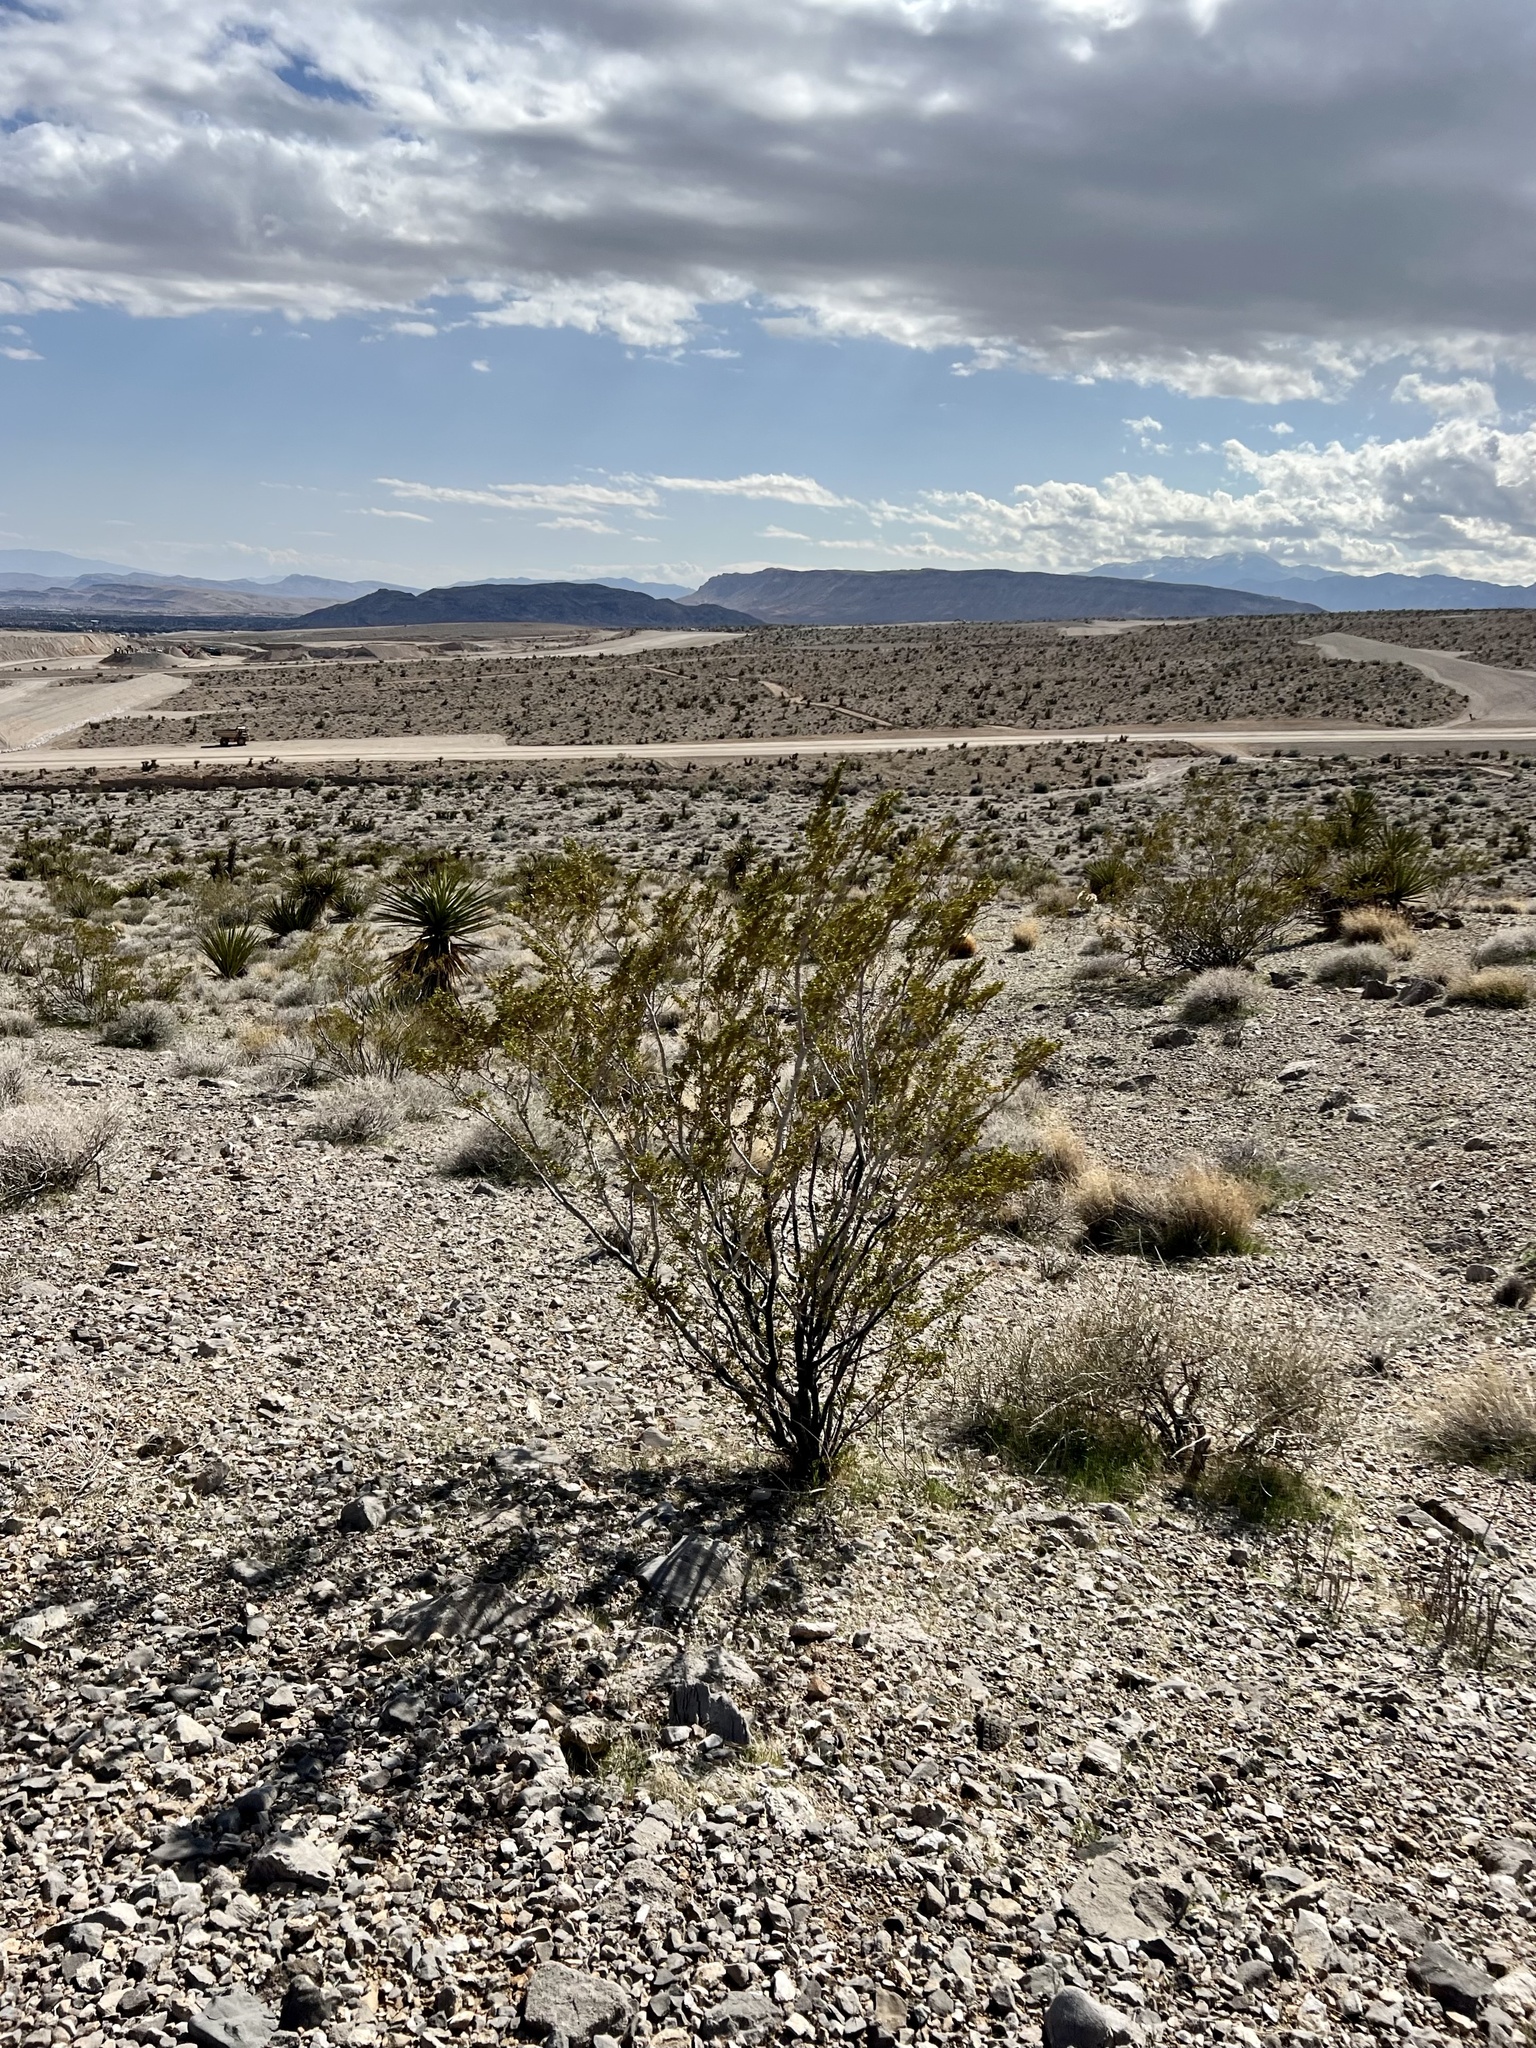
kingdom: Plantae
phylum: Tracheophyta
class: Magnoliopsida
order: Zygophyllales
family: Zygophyllaceae
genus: Larrea
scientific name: Larrea tridentata
